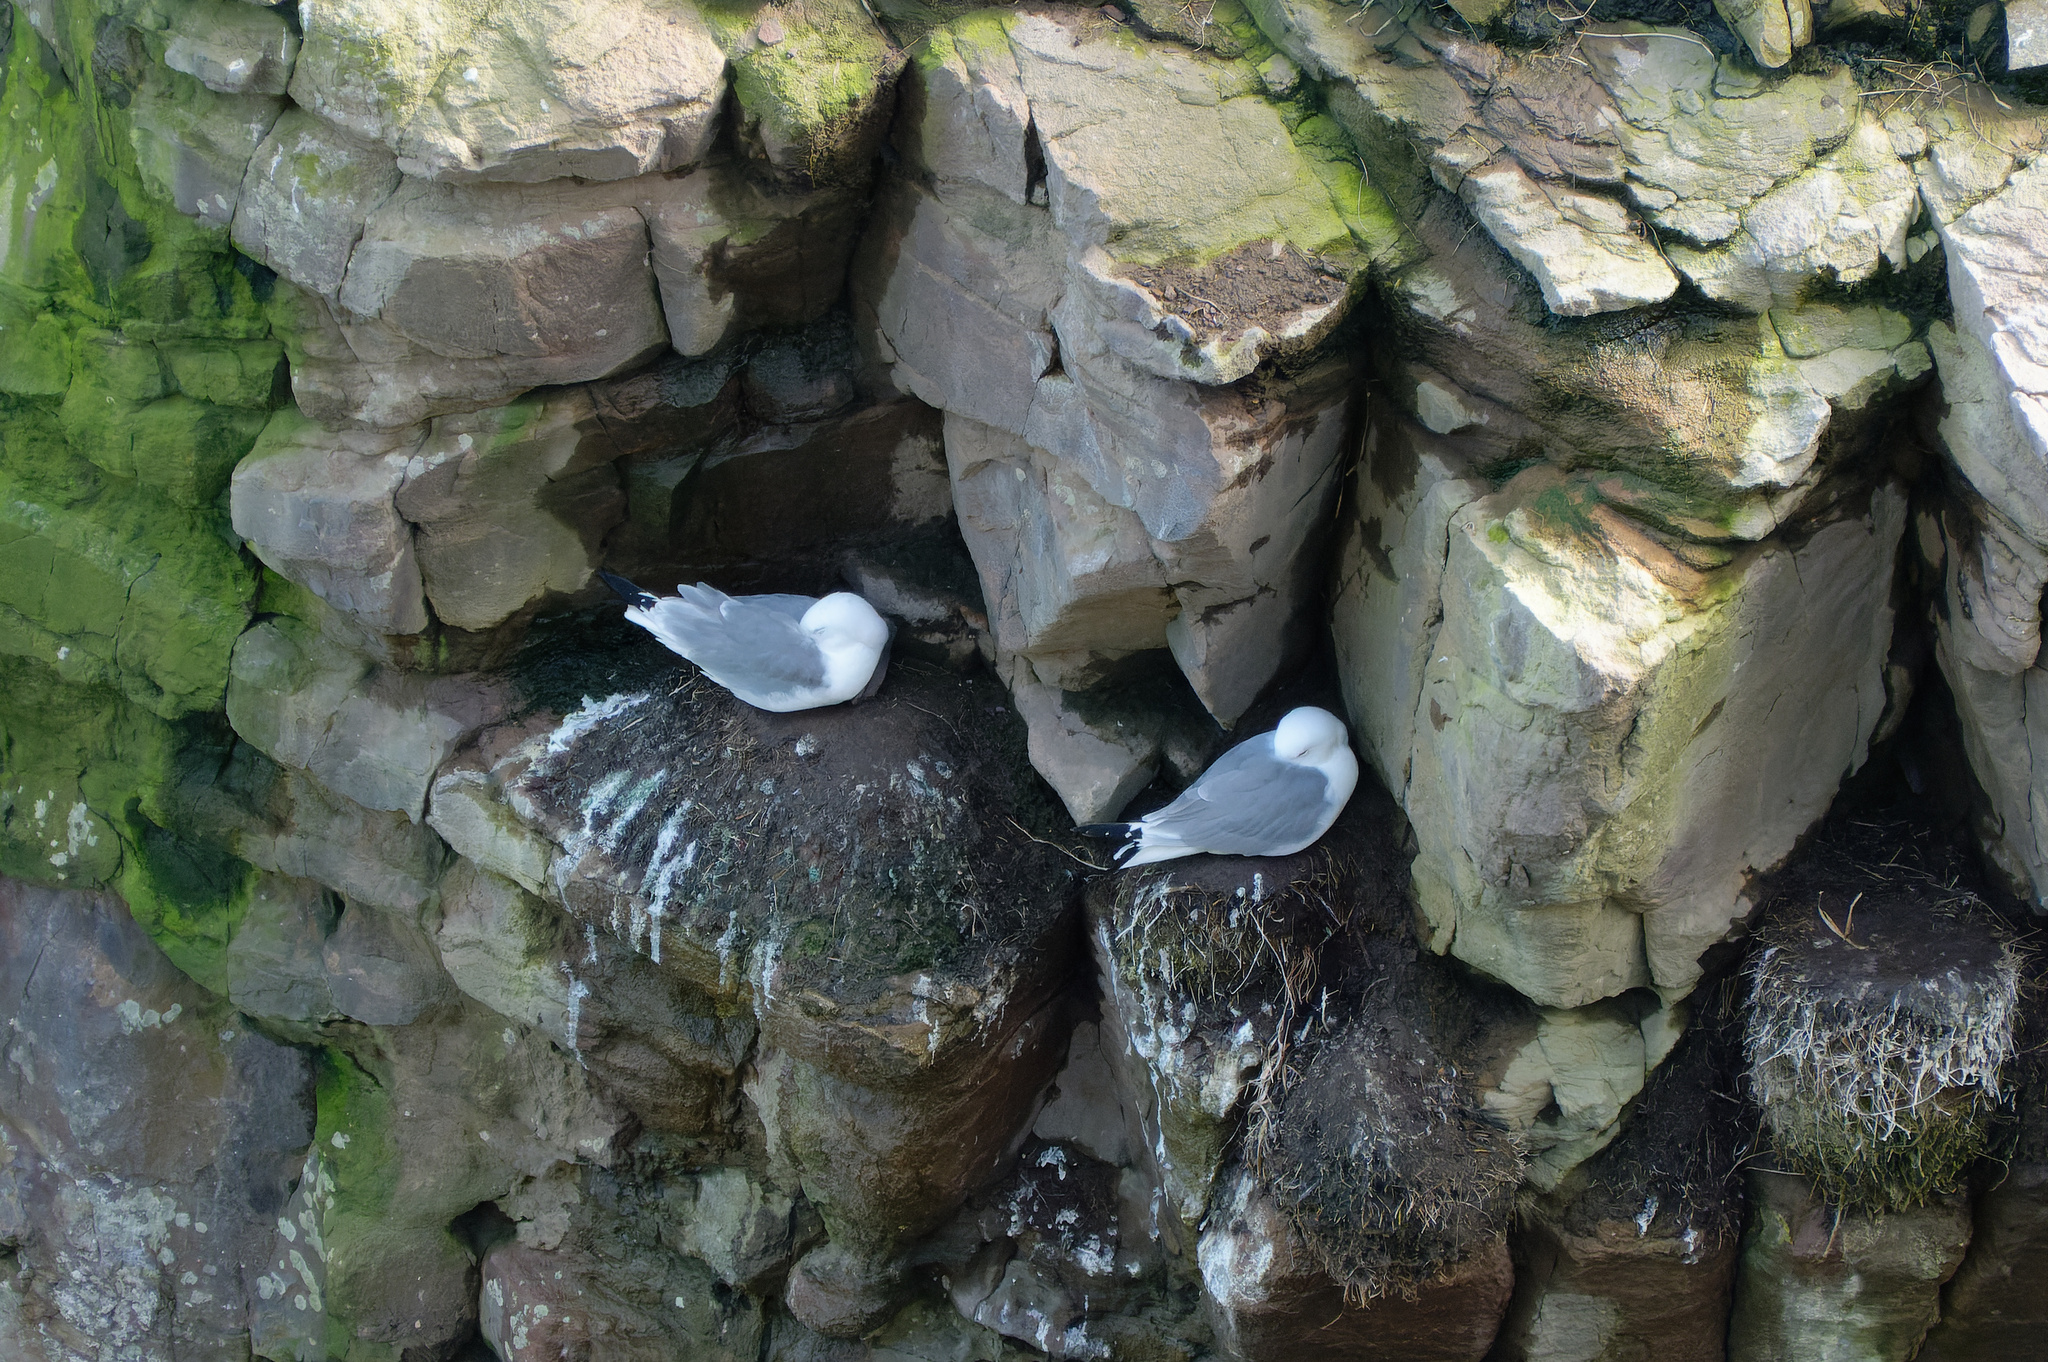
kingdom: Animalia
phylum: Chordata
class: Aves
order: Charadriiformes
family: Laridae
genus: Rissa
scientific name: Rissa tridactyla
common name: Black-legged kittiwake
